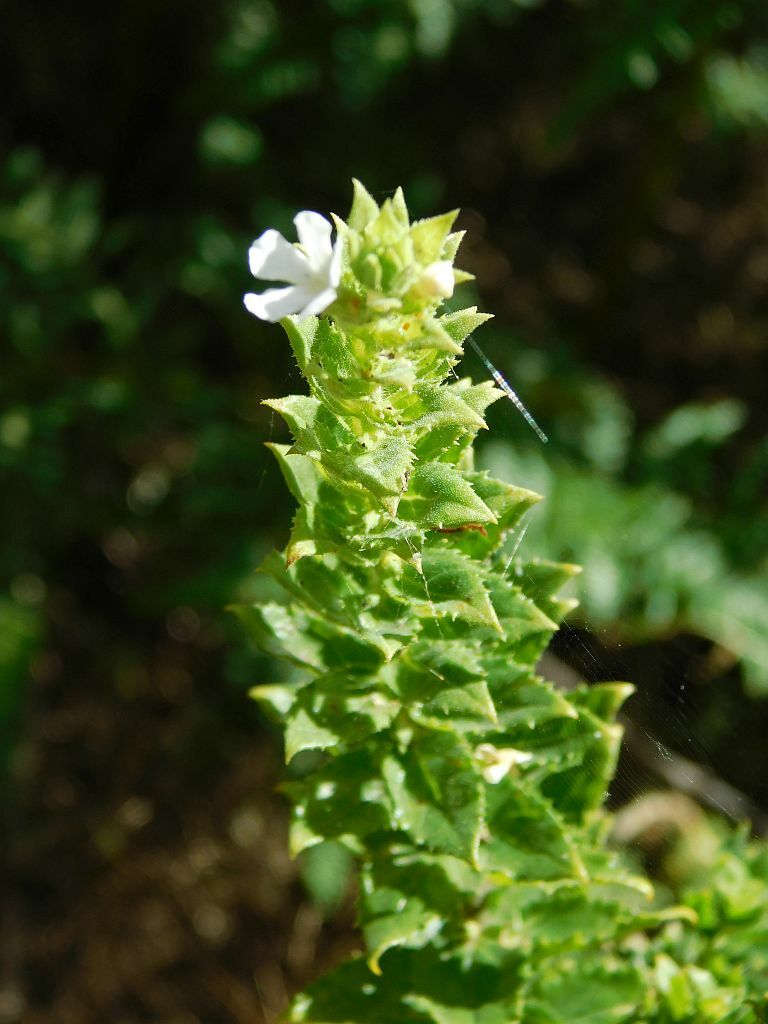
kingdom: Plantae
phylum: Tracheophyta
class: Magnoliopsida
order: Lamiales
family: Scrophulariaceae
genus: Oftia
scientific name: Oftia africana
